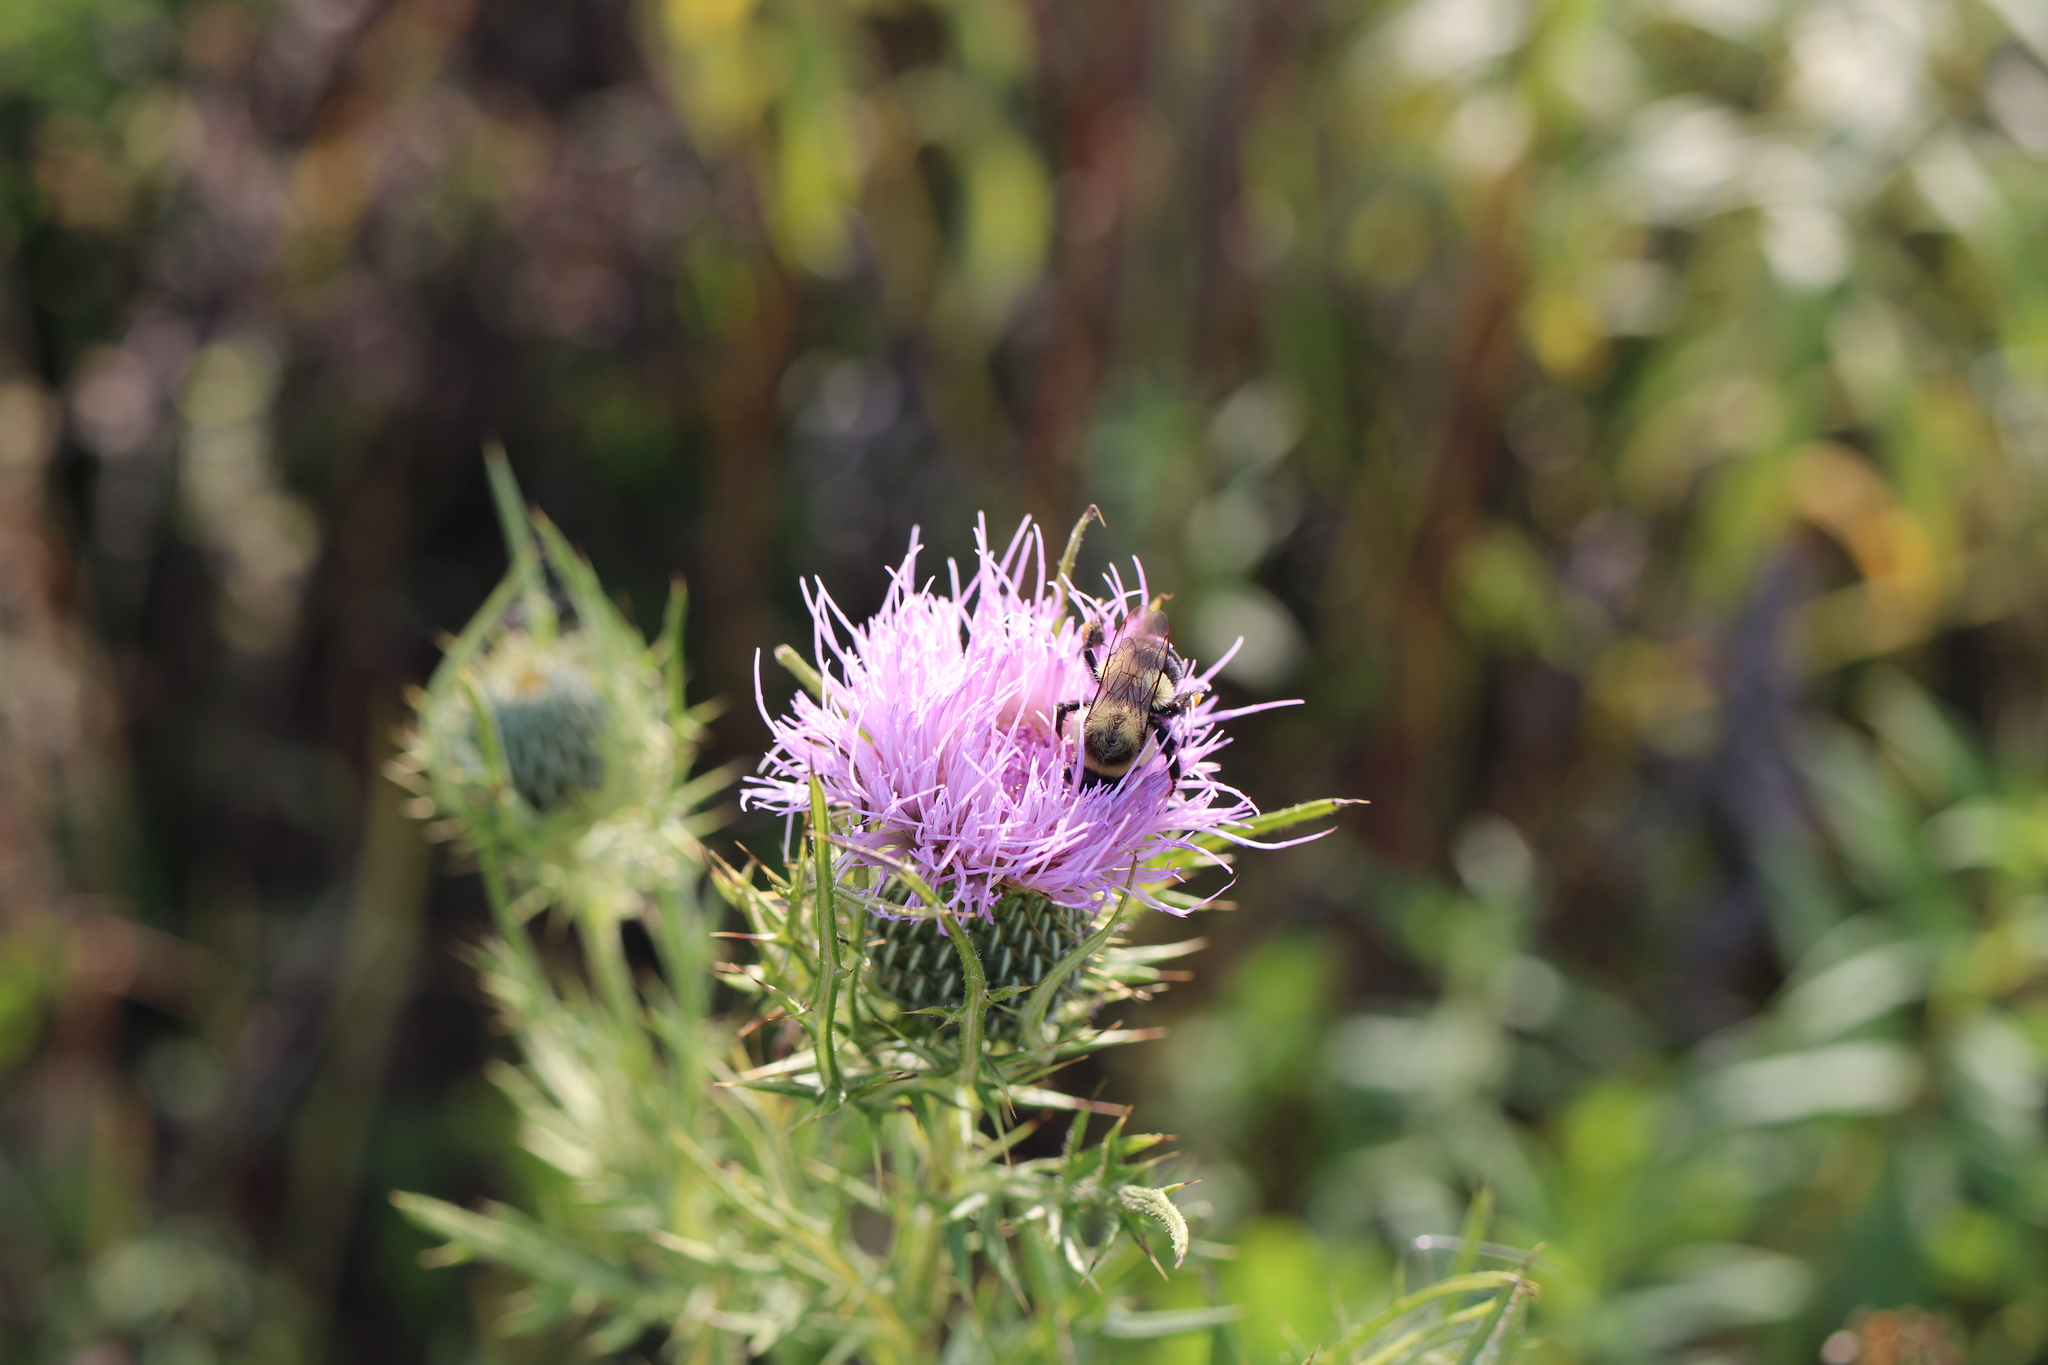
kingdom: Animalia
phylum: Arthropoda
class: Insecta
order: Hymenoptera
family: Apidae
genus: Bombus
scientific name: Bombus impatiens
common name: Common eastern bumble bee
